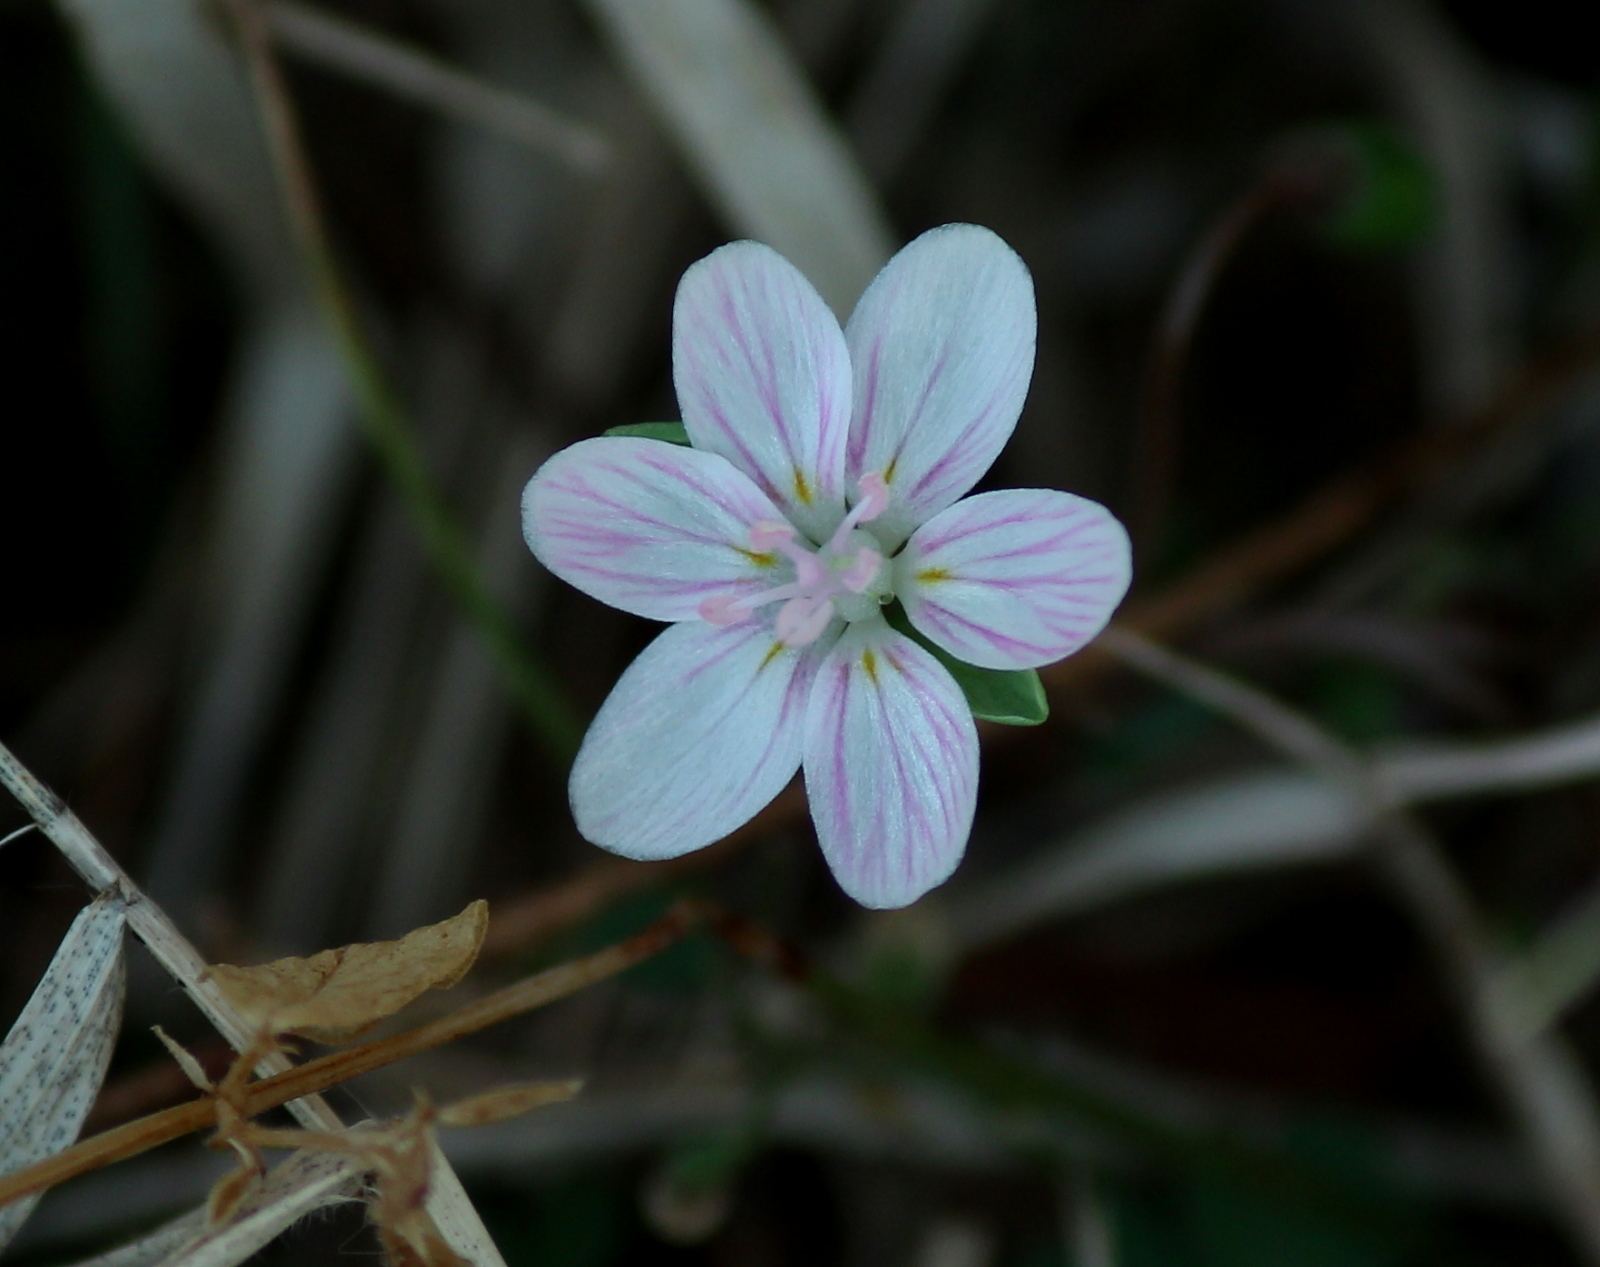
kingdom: Plantae
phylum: Tracheophyta
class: Magnoliopsida
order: Caryophyllales
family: Montiaceae
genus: Claytonia
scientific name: Claytonia virginica
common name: Virginia springbeauty
